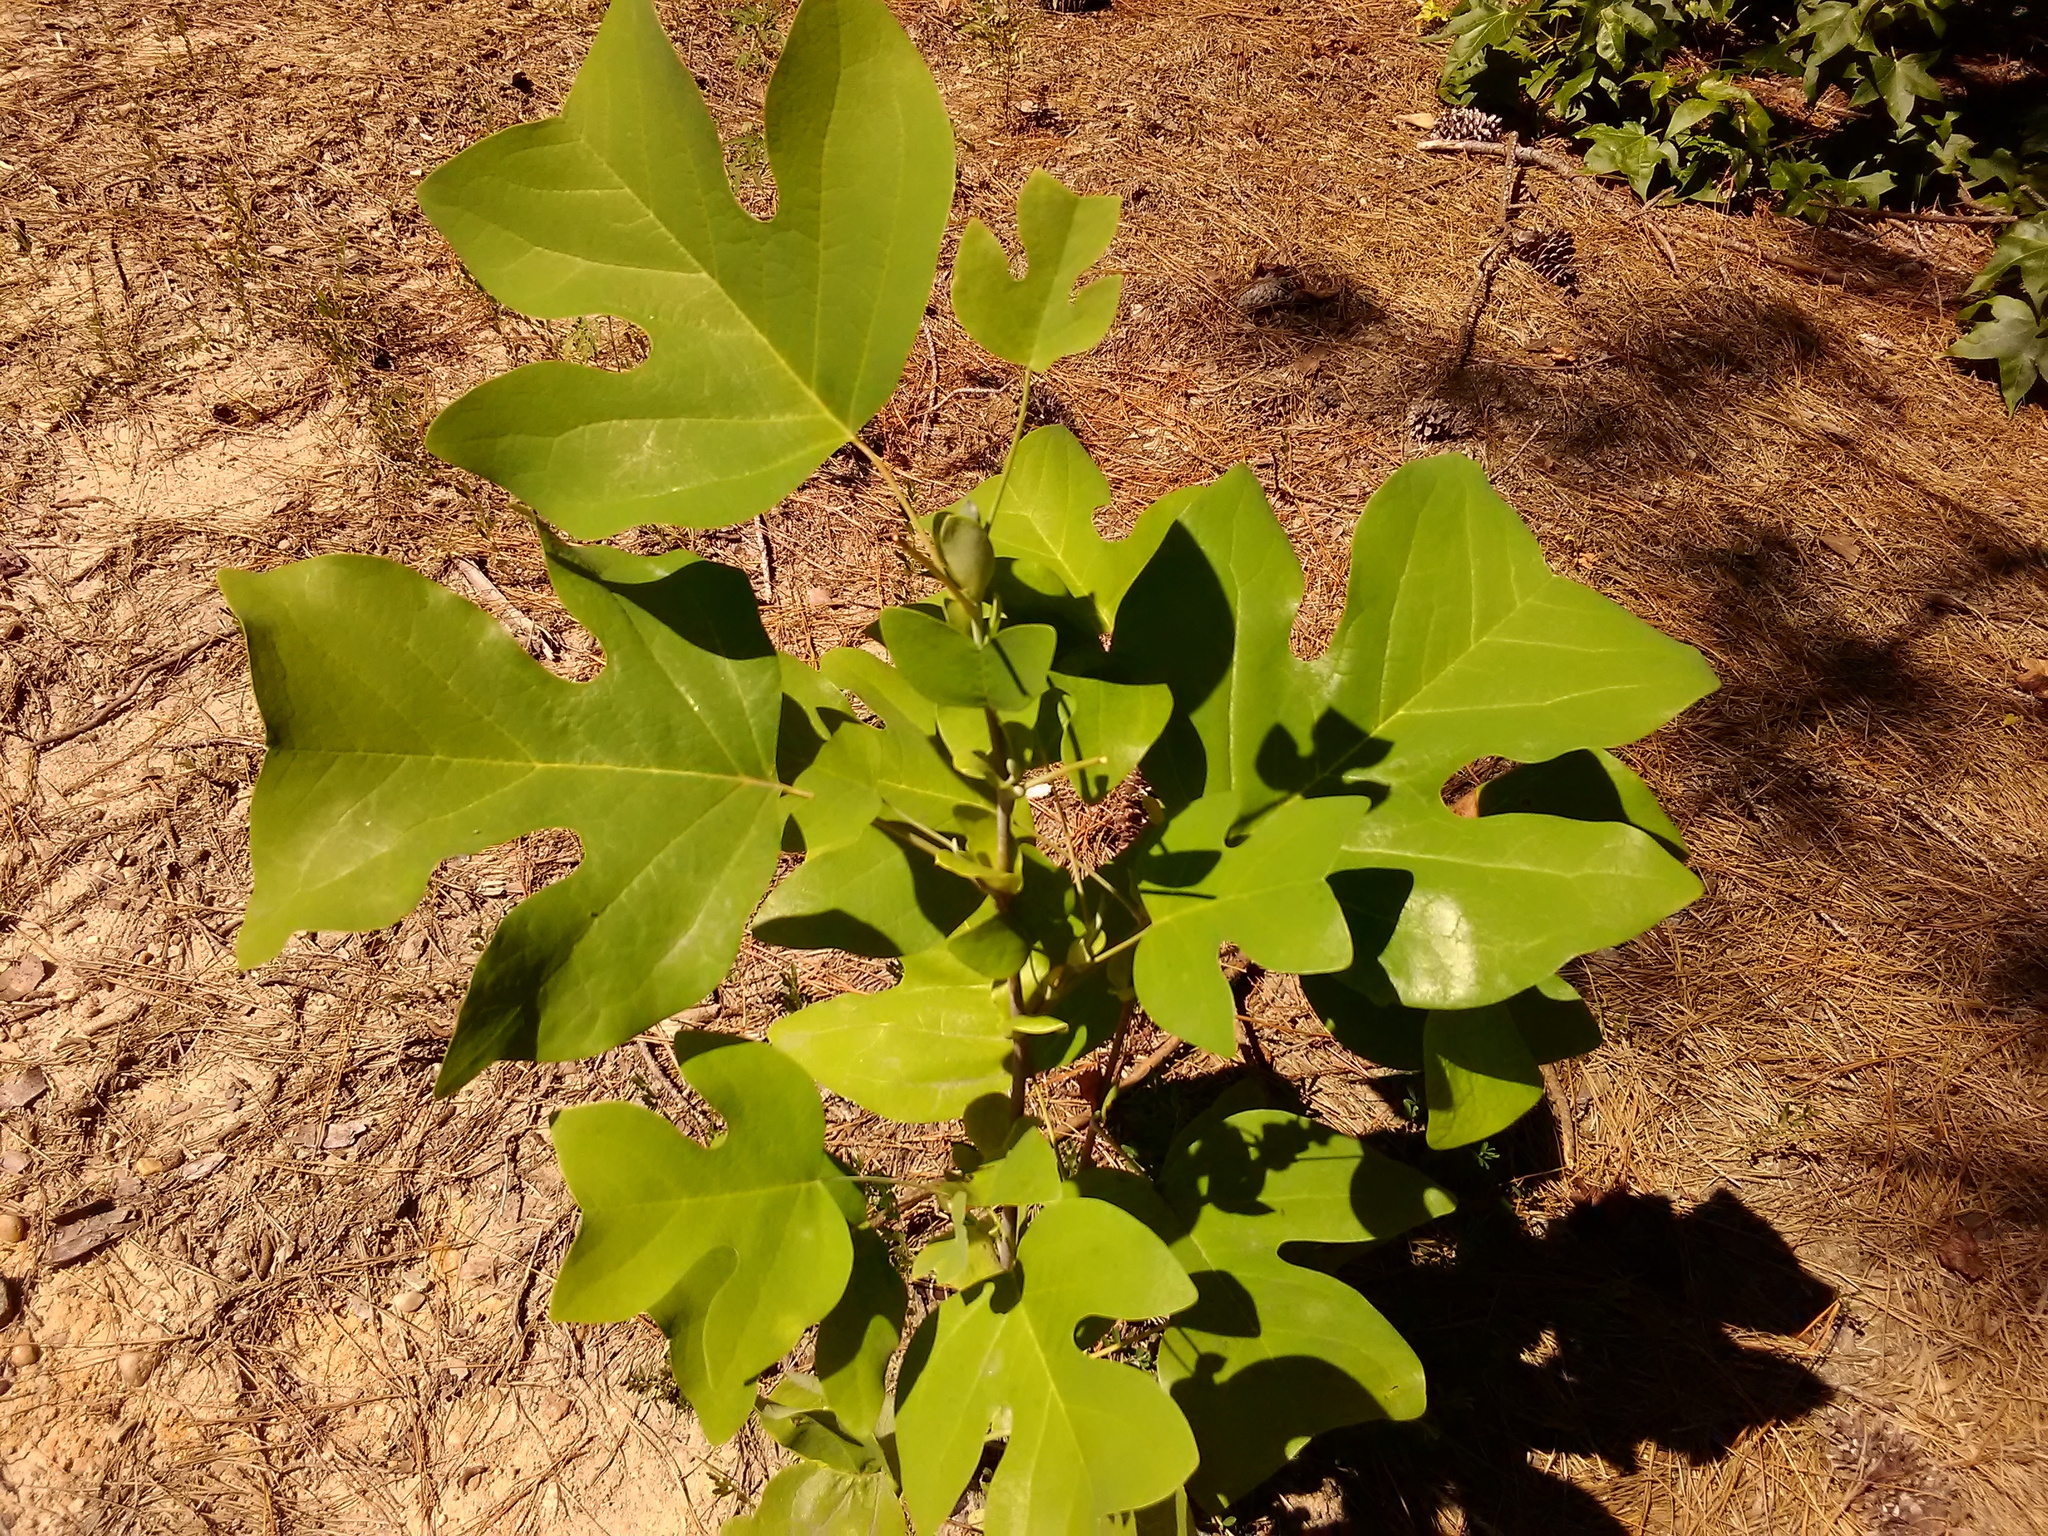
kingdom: Plantae
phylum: Tracheophyta
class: Magnoliopsida
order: Magnoliales
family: Magnoliaceae
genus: Liriodendron
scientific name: Liriodendron tulipifera
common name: Tulip tree
